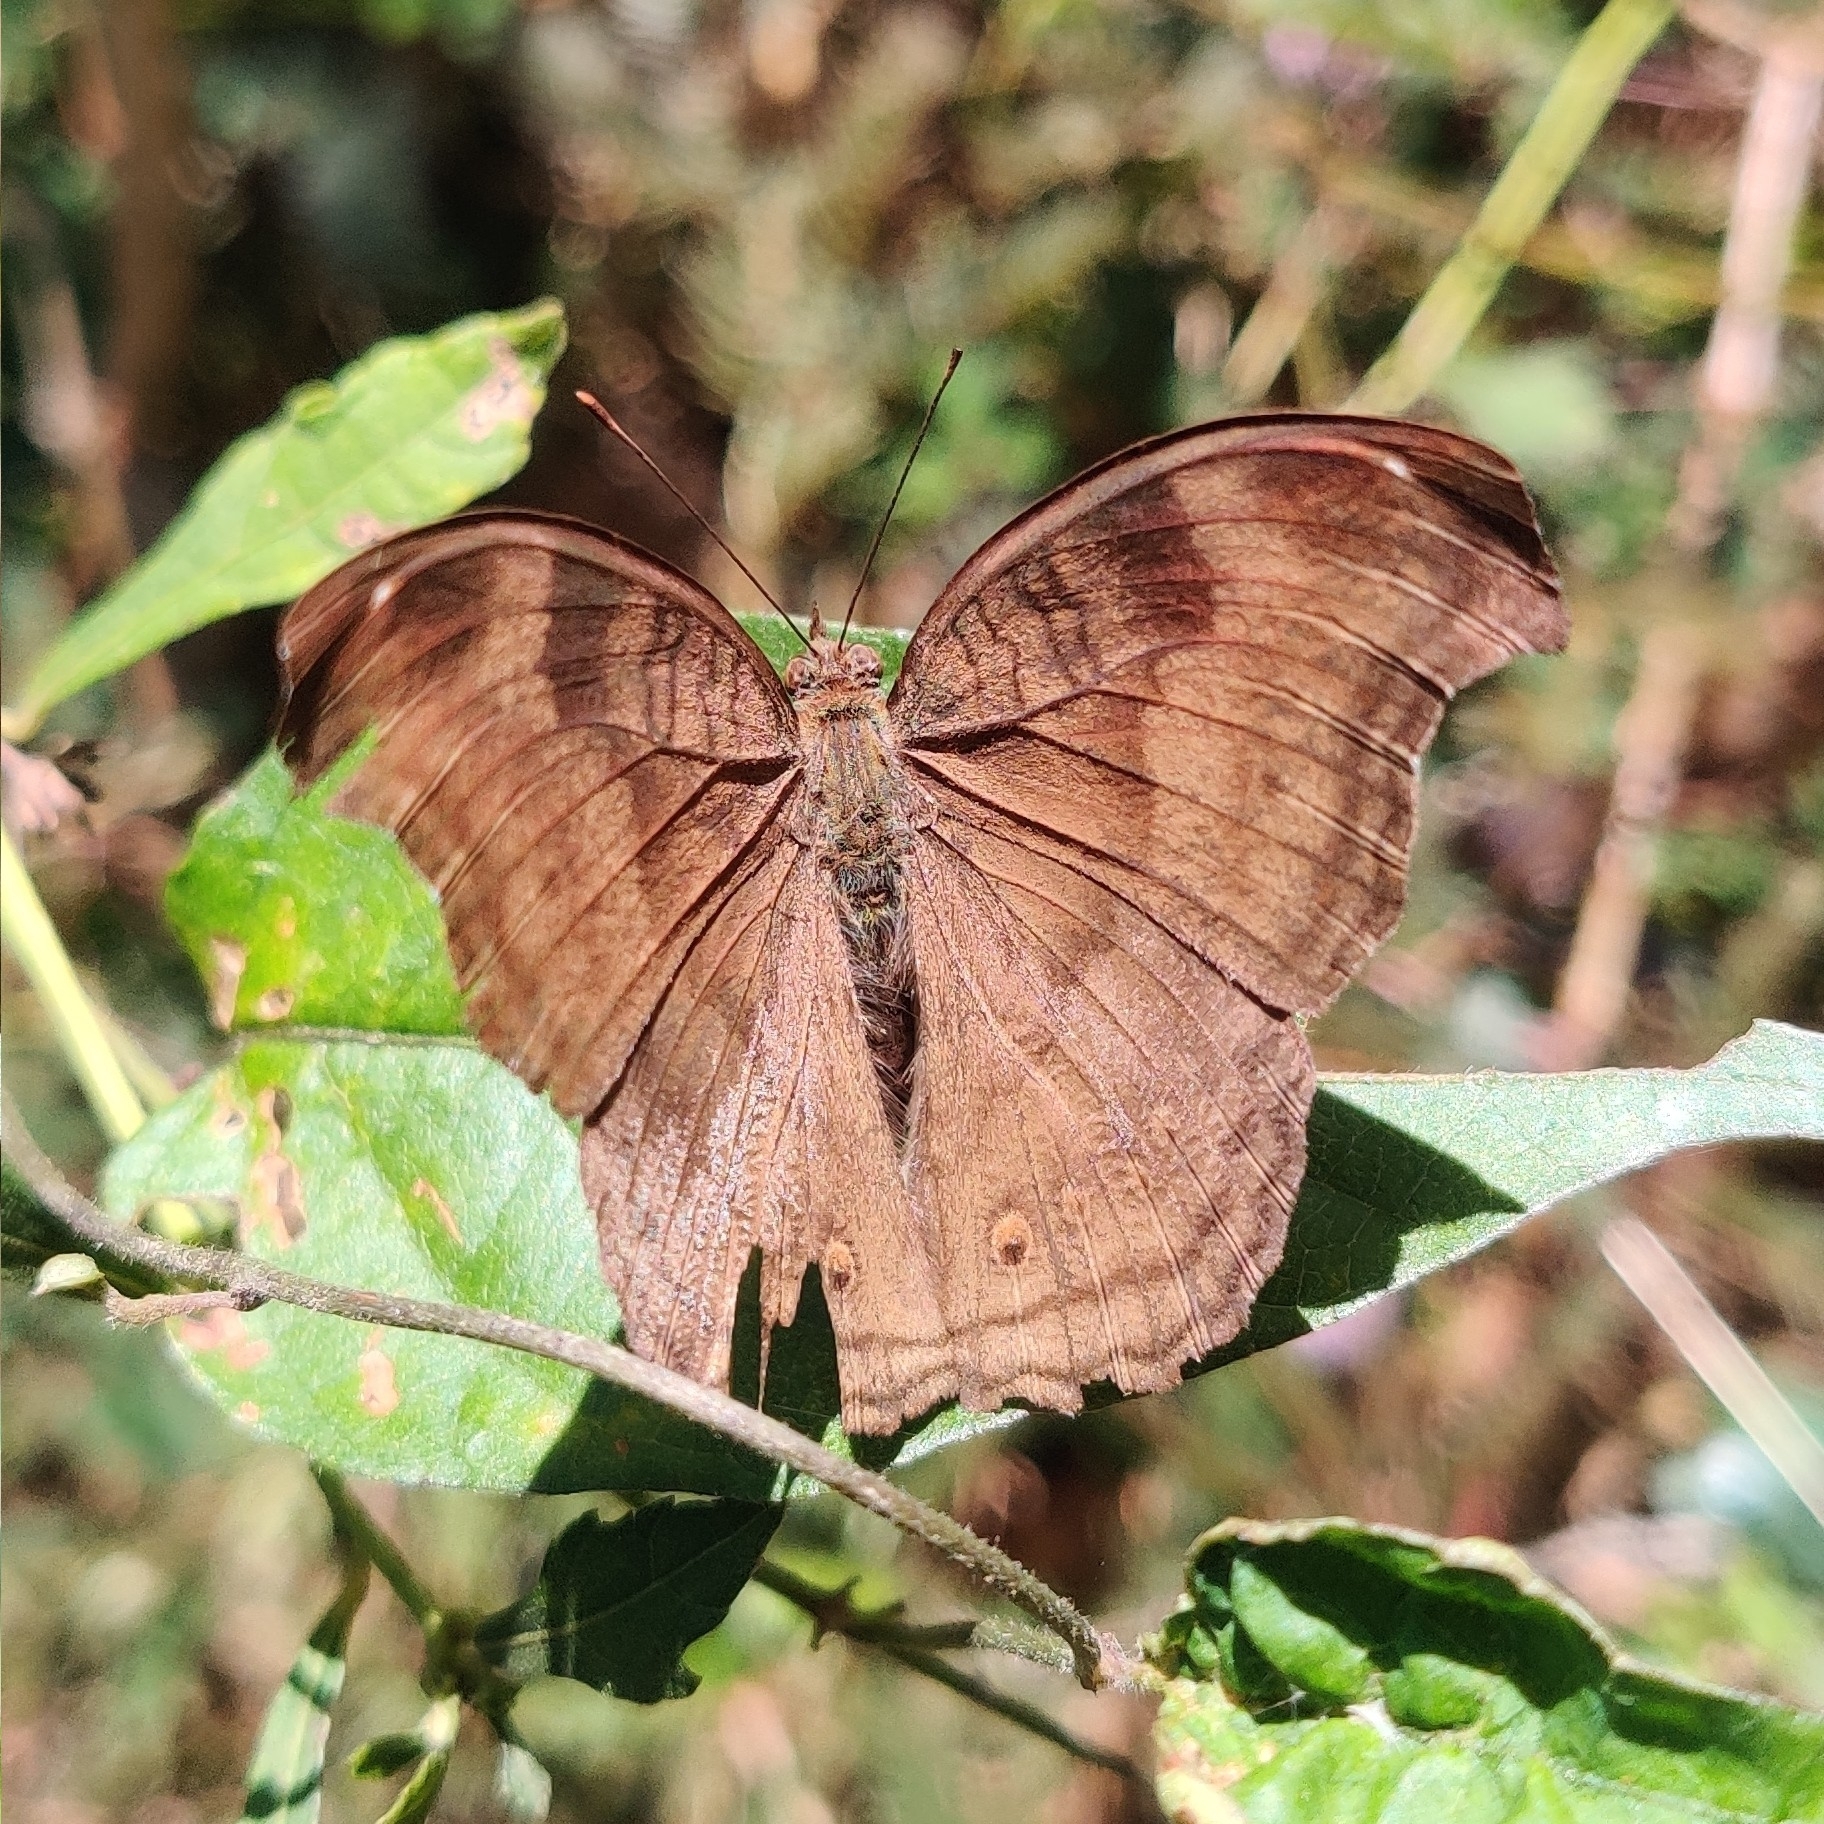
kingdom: Animalia
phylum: Arthropoda
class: Insecta
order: Lepidoptera
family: Nymphalidae
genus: Junonia
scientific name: Junonia iphita
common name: Chocolate pansy
